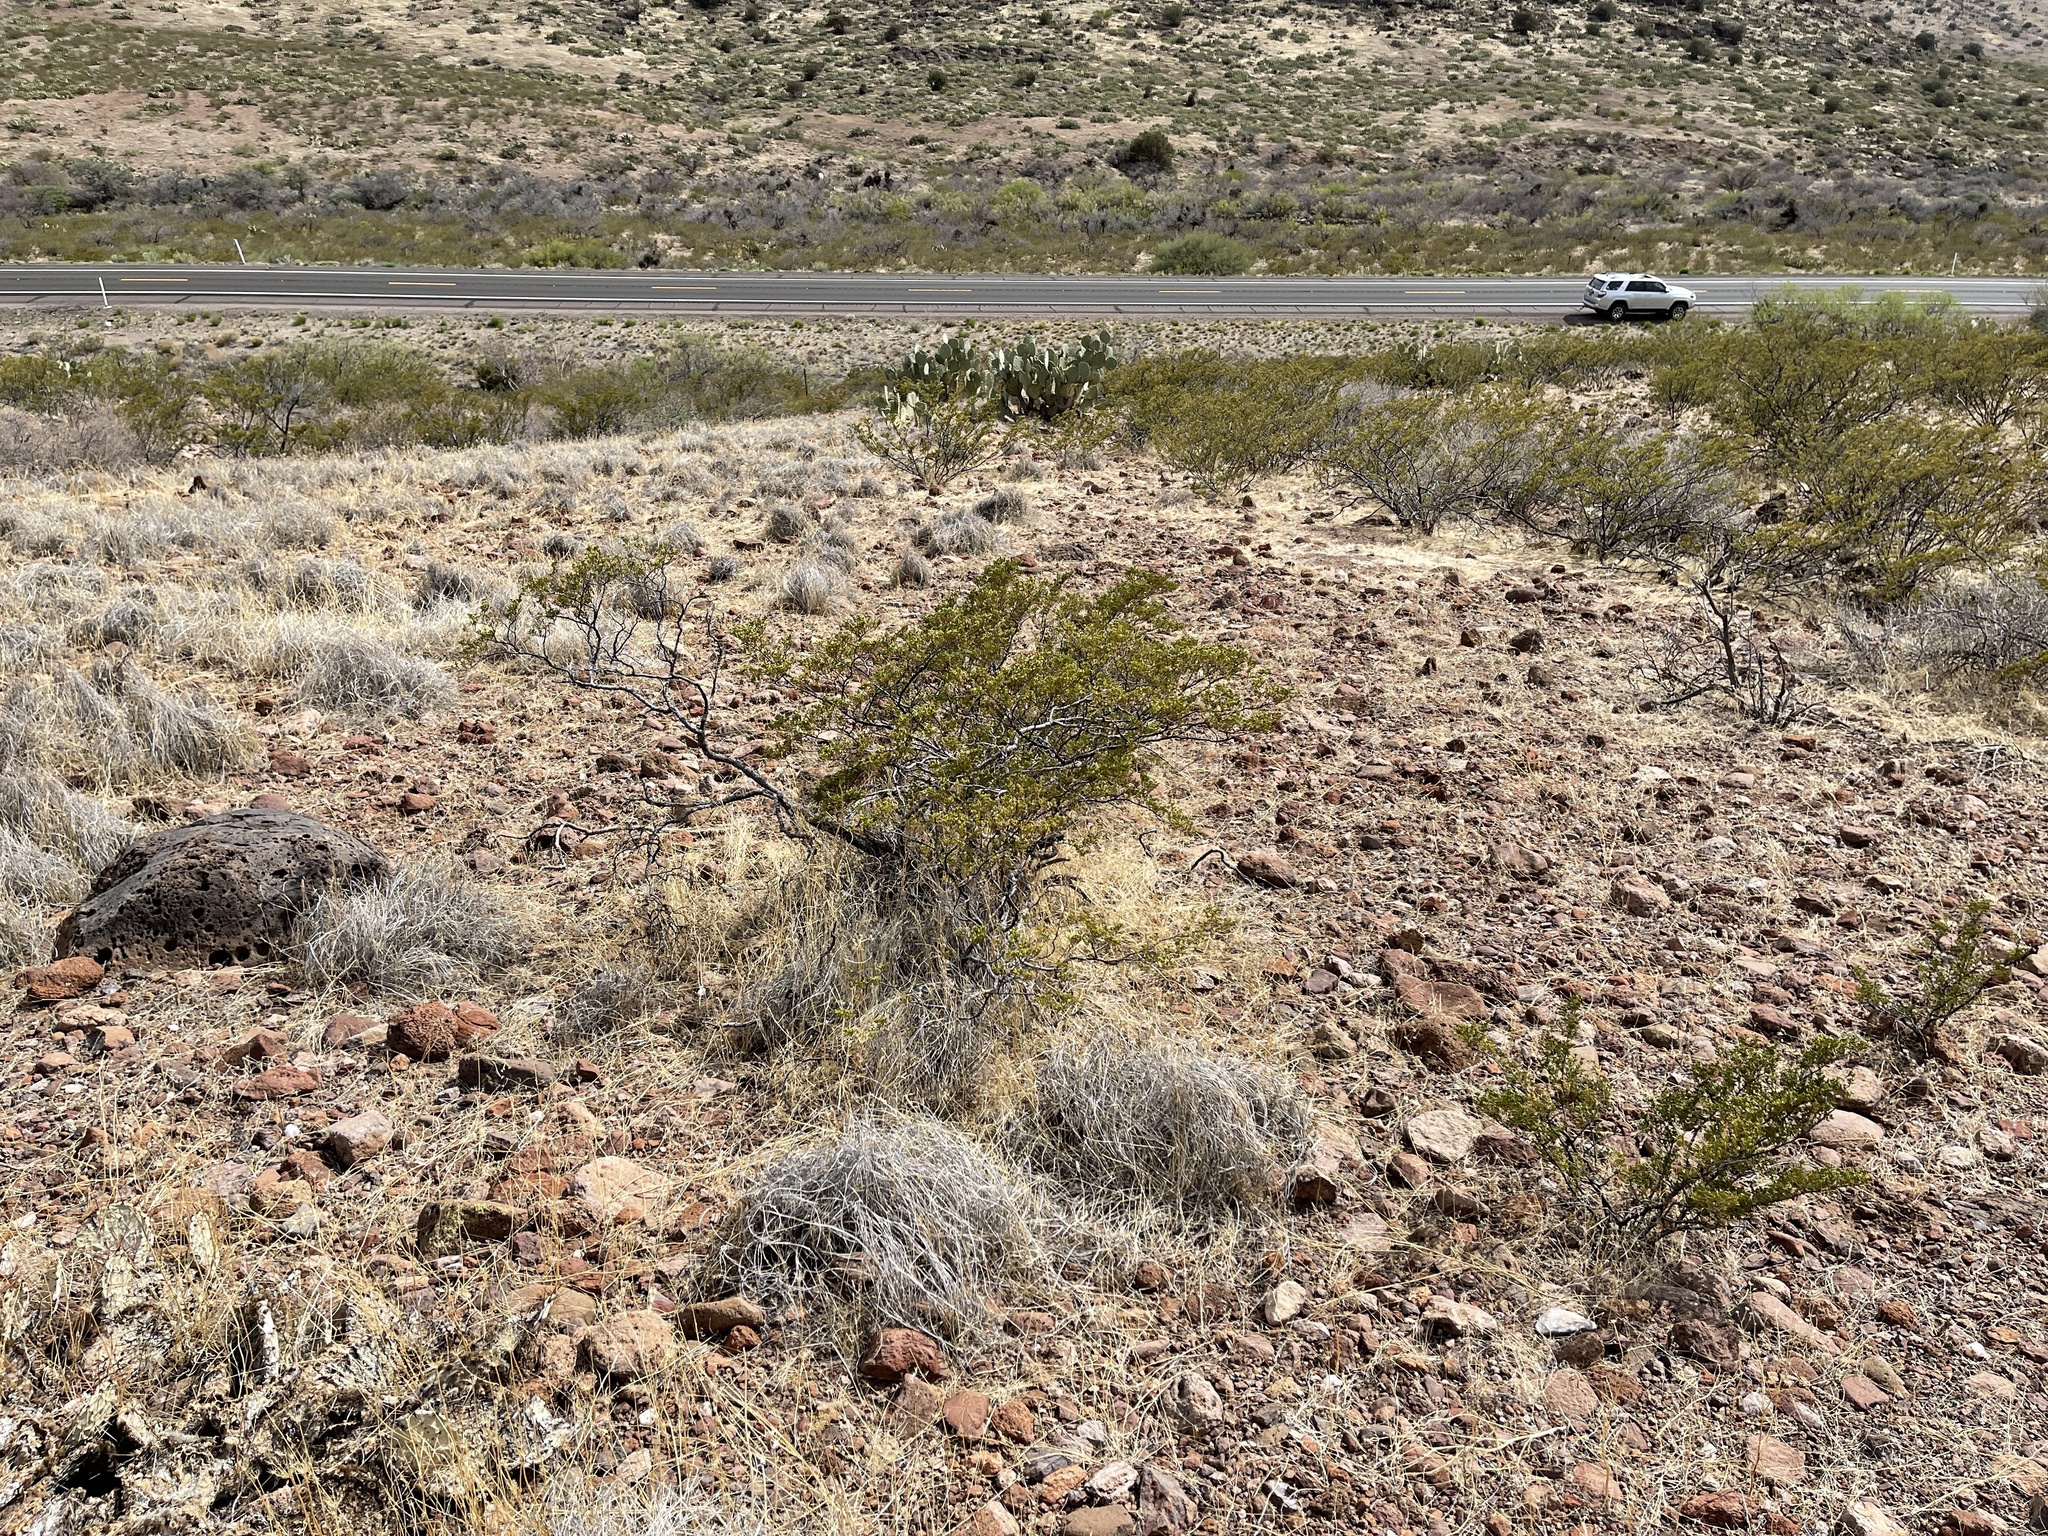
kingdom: Plantae
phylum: Tracheophyta
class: Magnoliopsida
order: Zygophyllales
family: Zygophyllaceae
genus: Larrea
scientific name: Larrea tridentata
